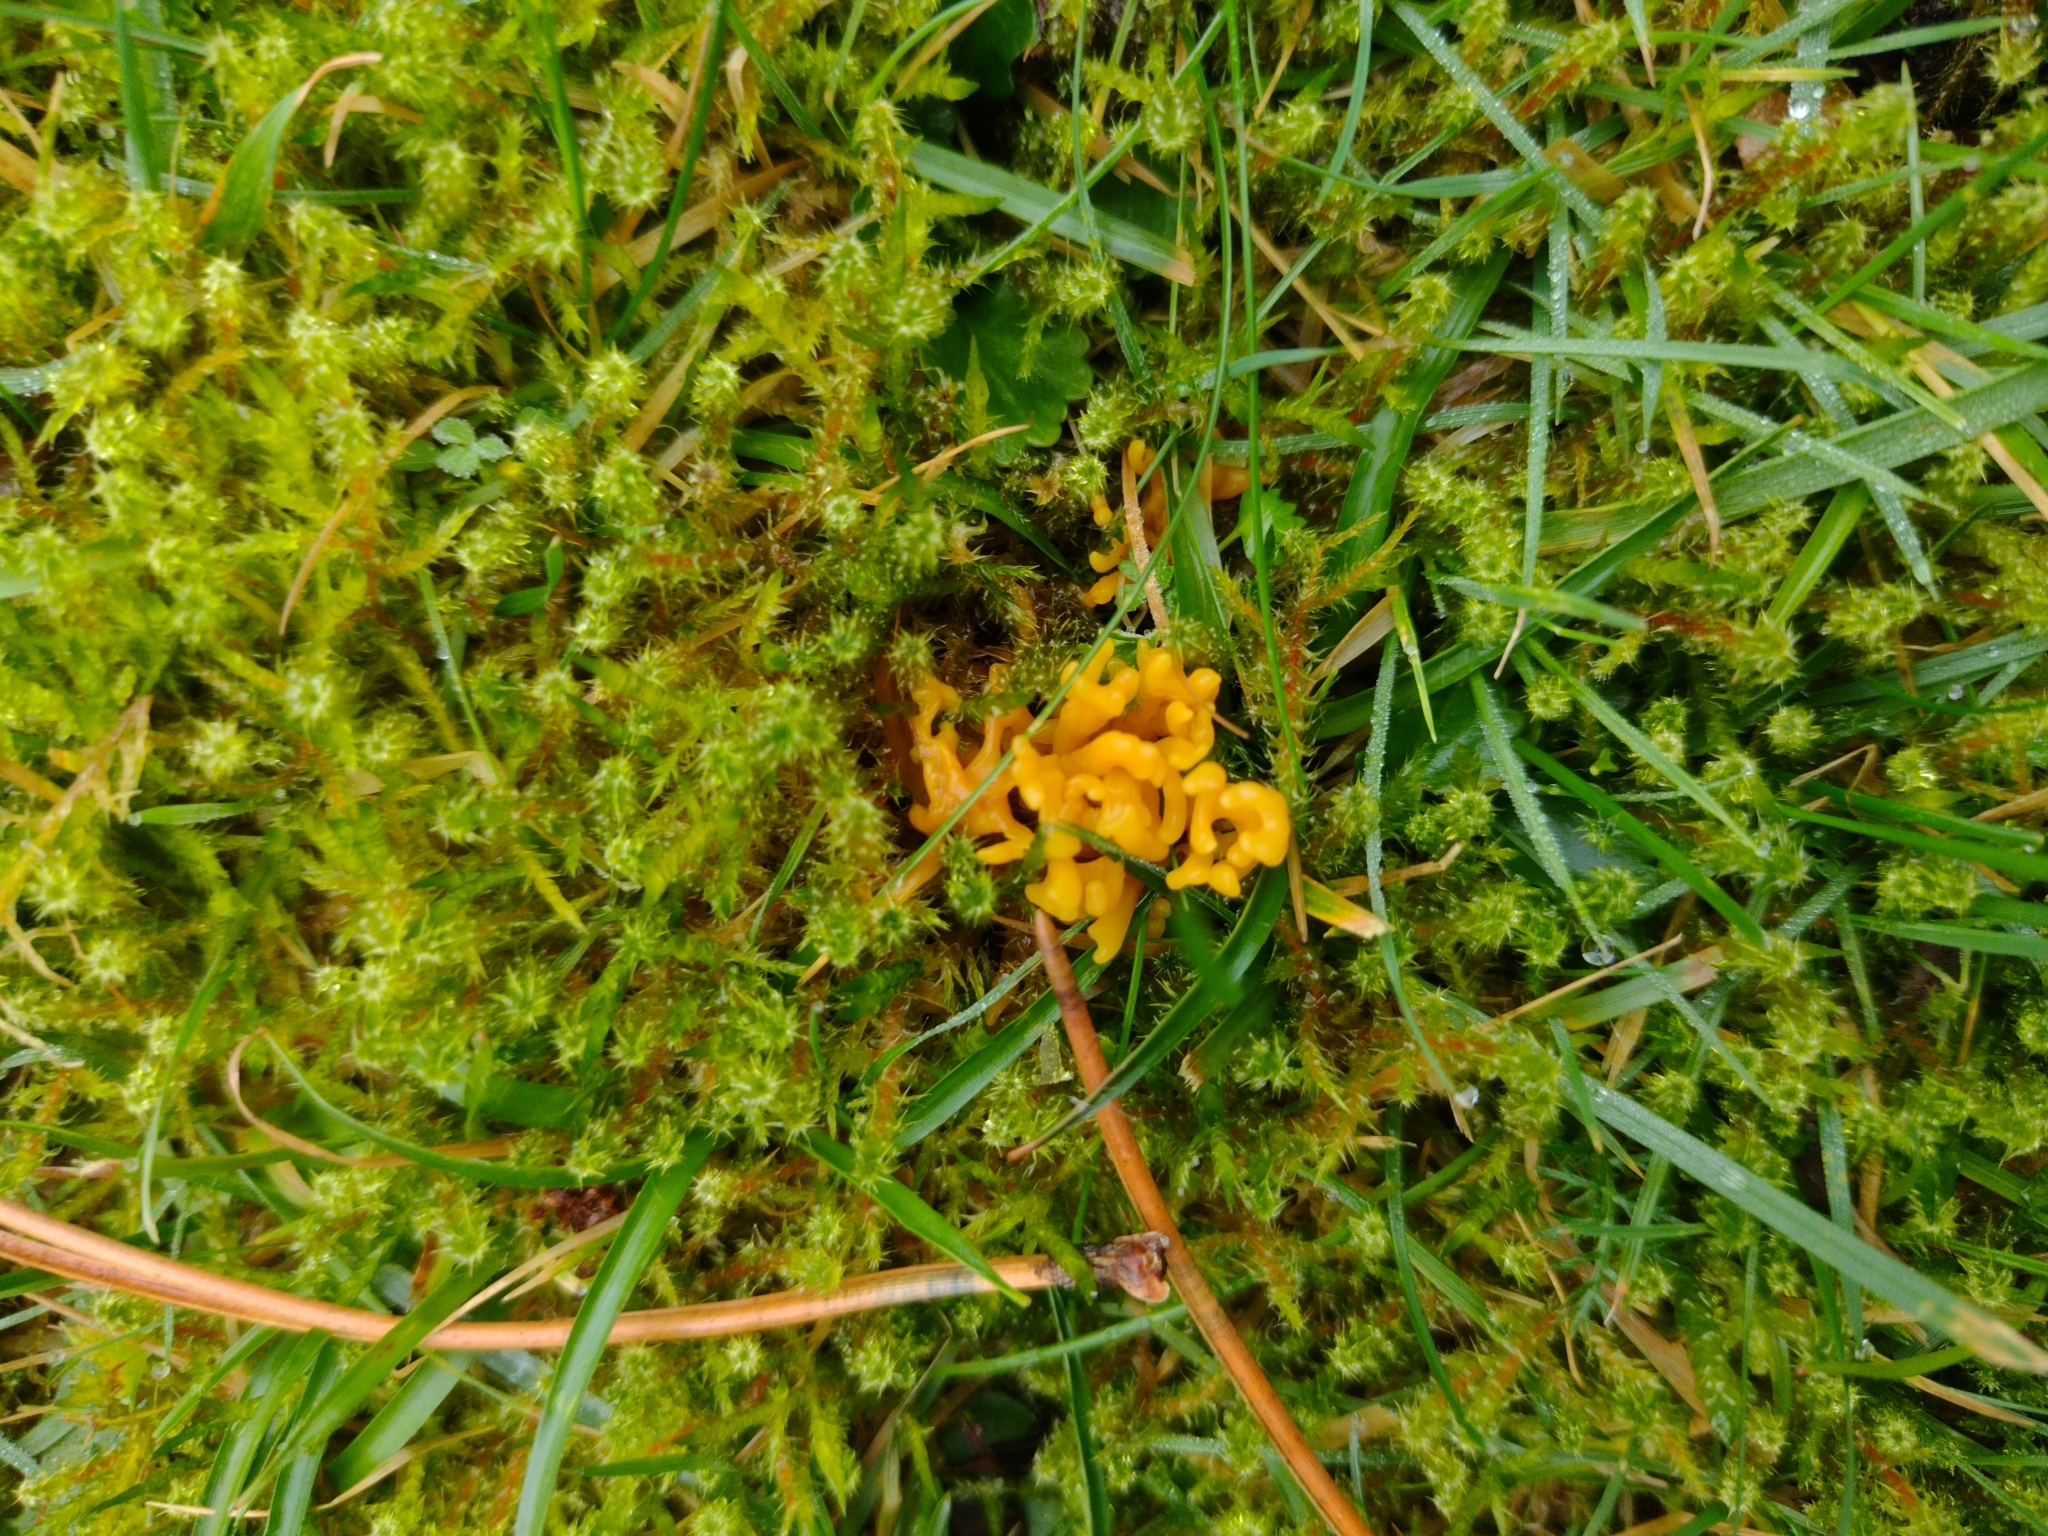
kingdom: Fungi
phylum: Basidiomycota
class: Agaricomycetes
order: Agaricales
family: Clavariaceae
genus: Clavulinopsis
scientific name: Clavulinopsis corniculata
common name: Meadow coral
